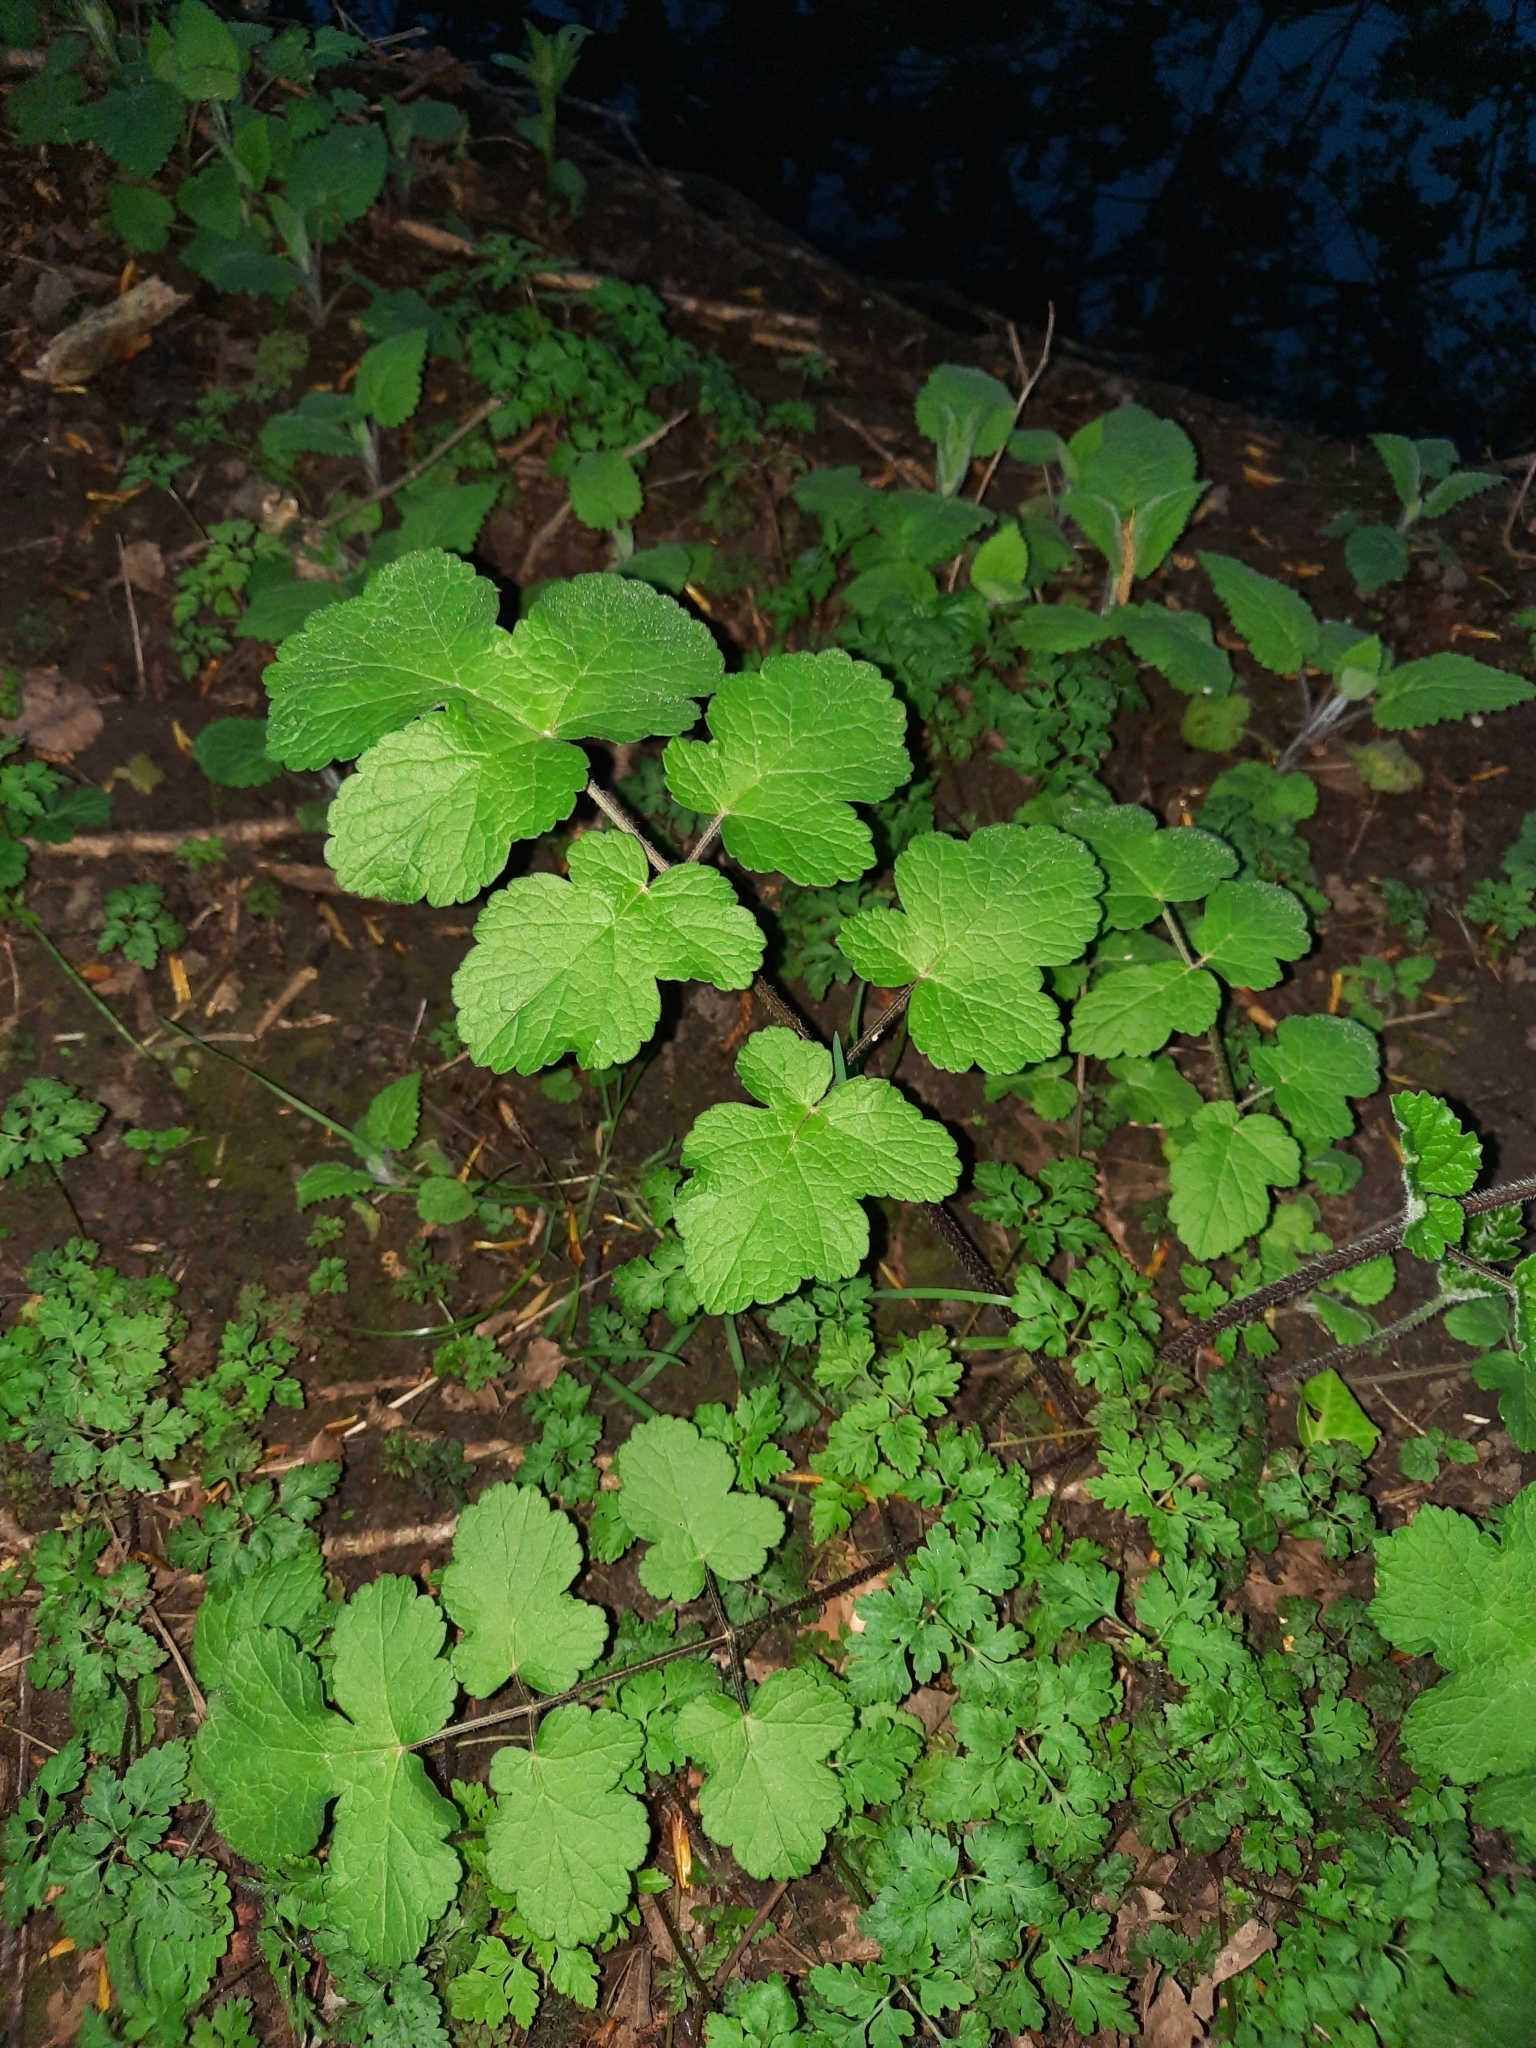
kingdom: Plantae
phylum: Tracheophyta
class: Magnoliopsida
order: Apiales
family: Apiaceae
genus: Heracleum
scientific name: Heracleum sphondylium
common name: Hogweed
